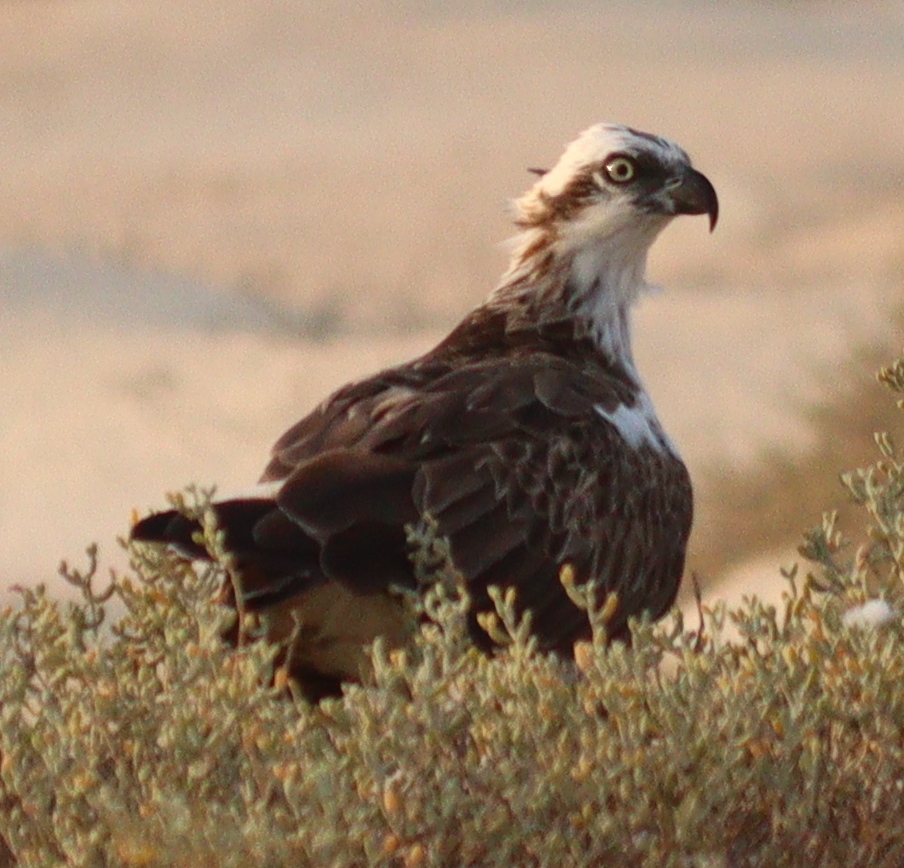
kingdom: Animalia
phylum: Chordata
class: Aves
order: Accipitriformes
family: Pandionidae
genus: Pandion
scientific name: Pandion haliaetus
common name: Osprey
